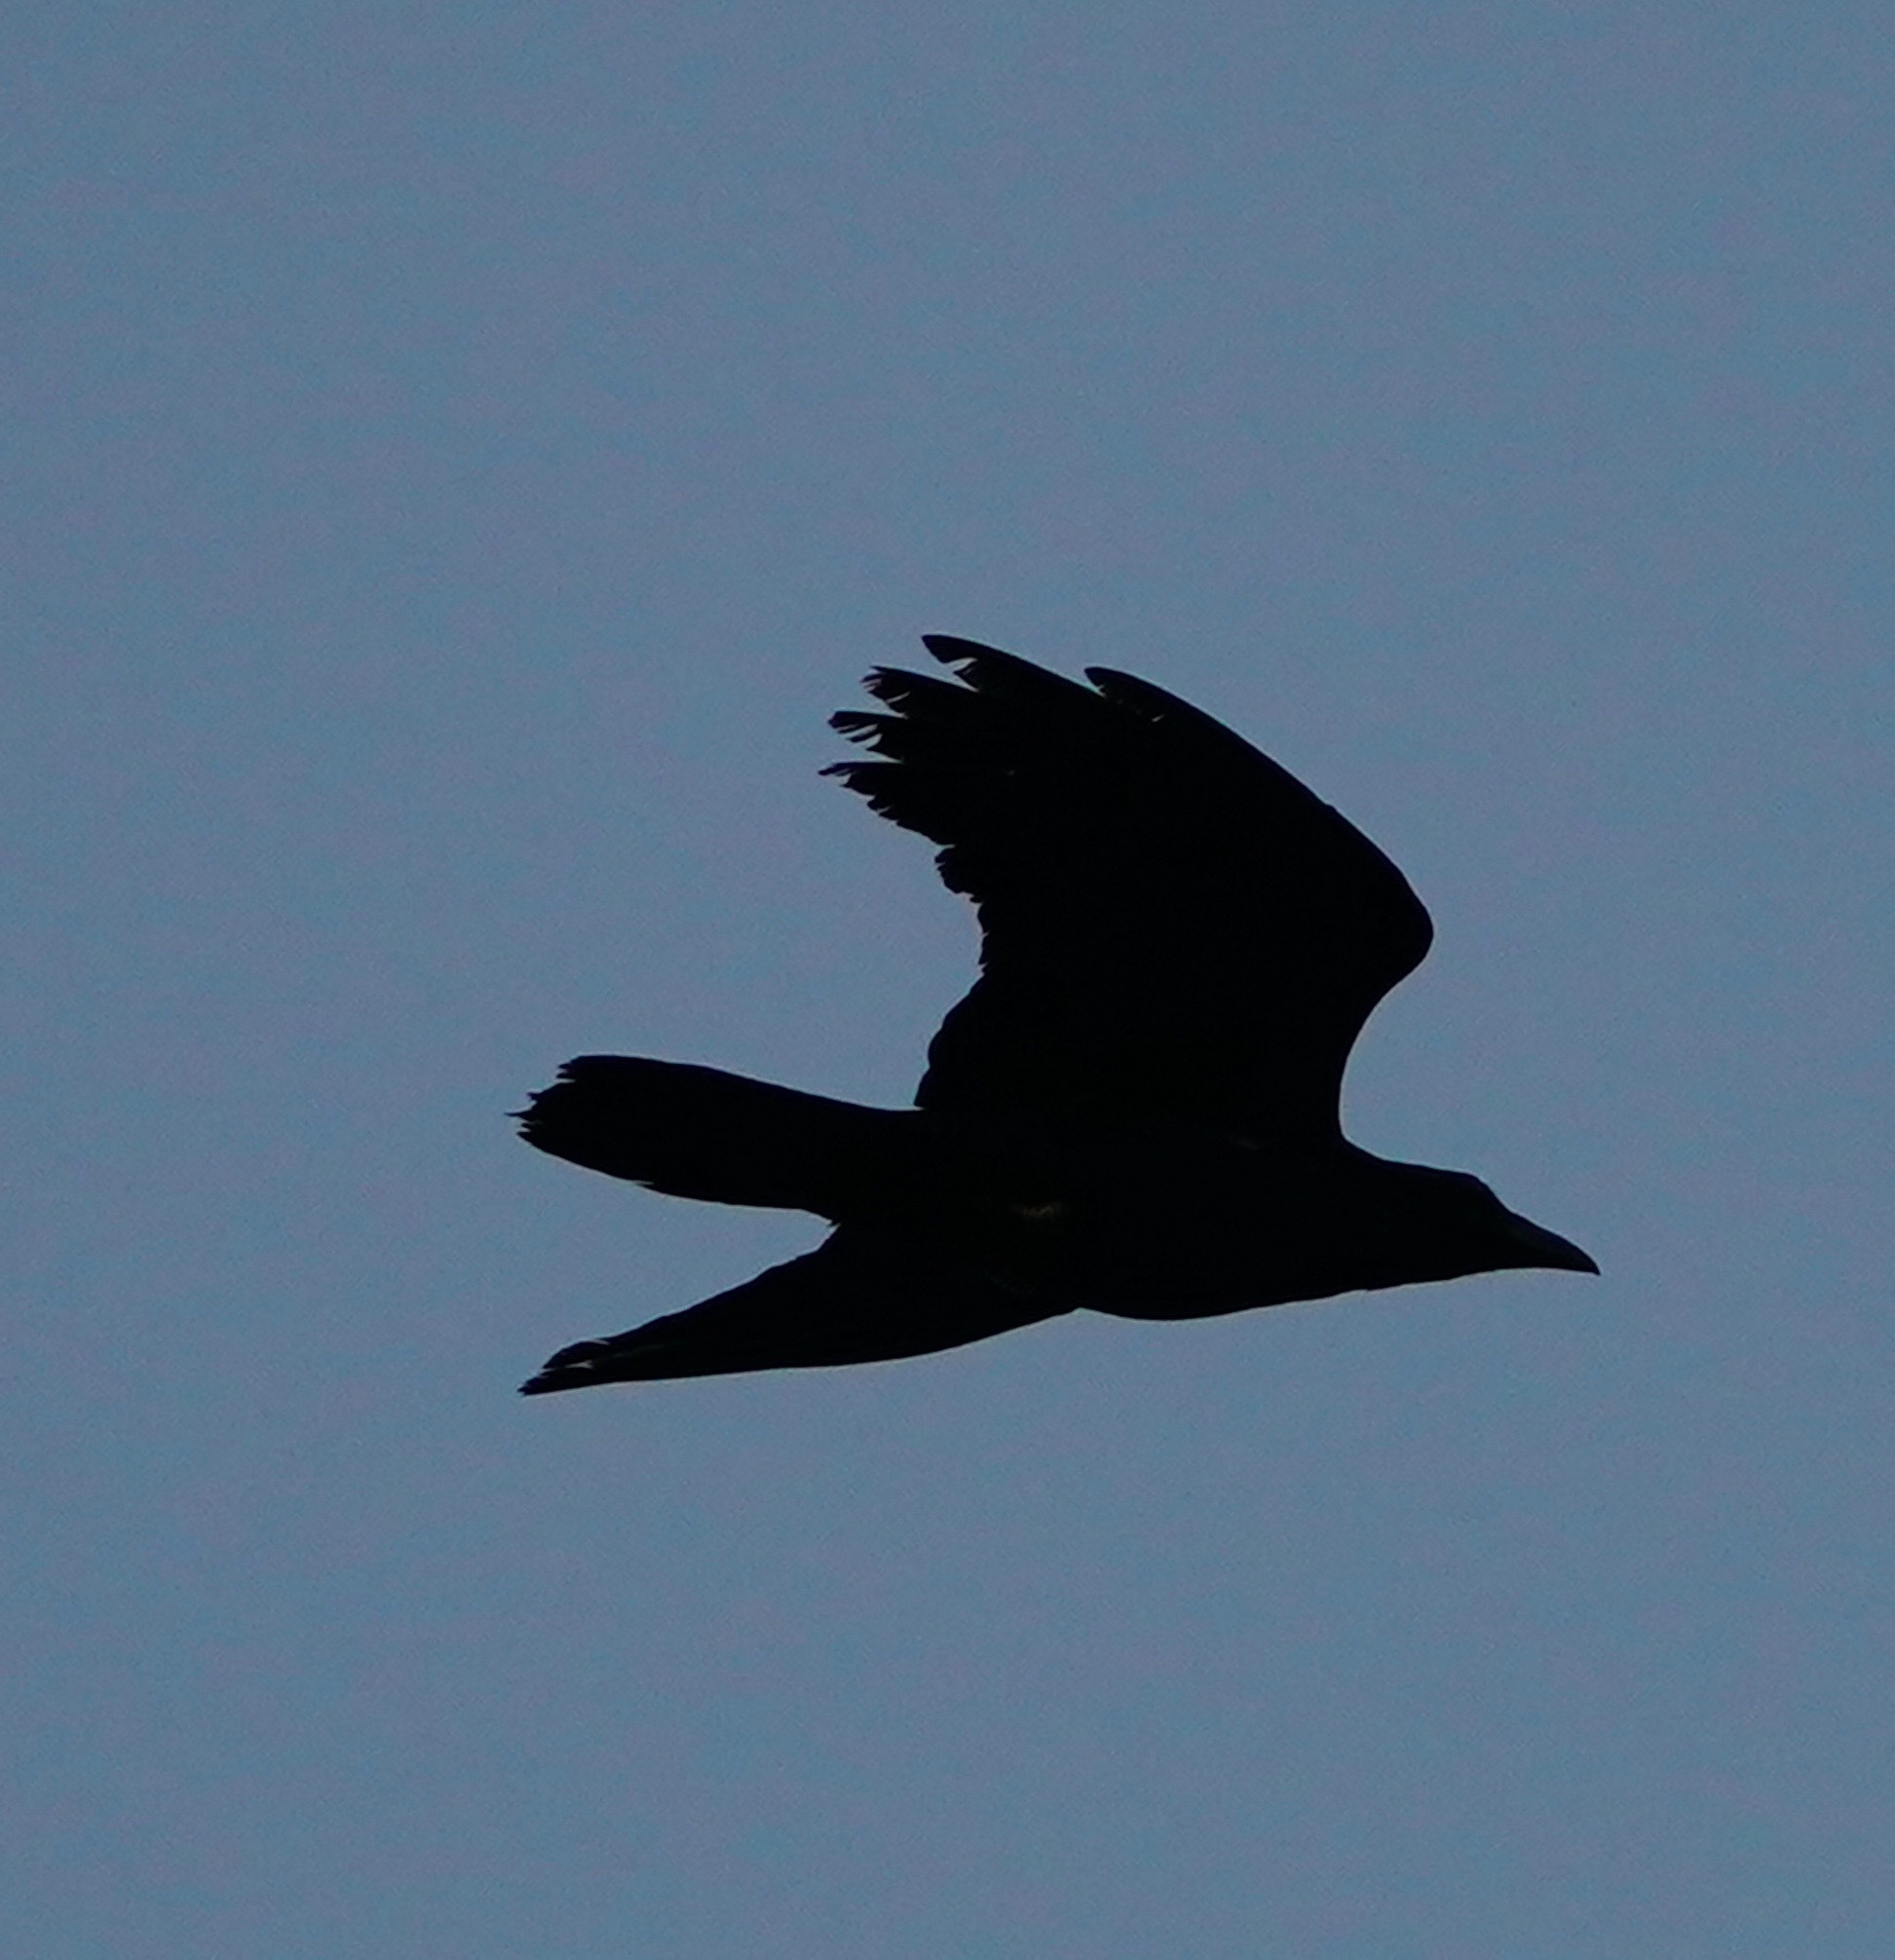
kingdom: Animalia
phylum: Chordata
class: Aves
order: Passeriformes
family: Corvidae
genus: Corvus
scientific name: Corvus corax
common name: Common raven
